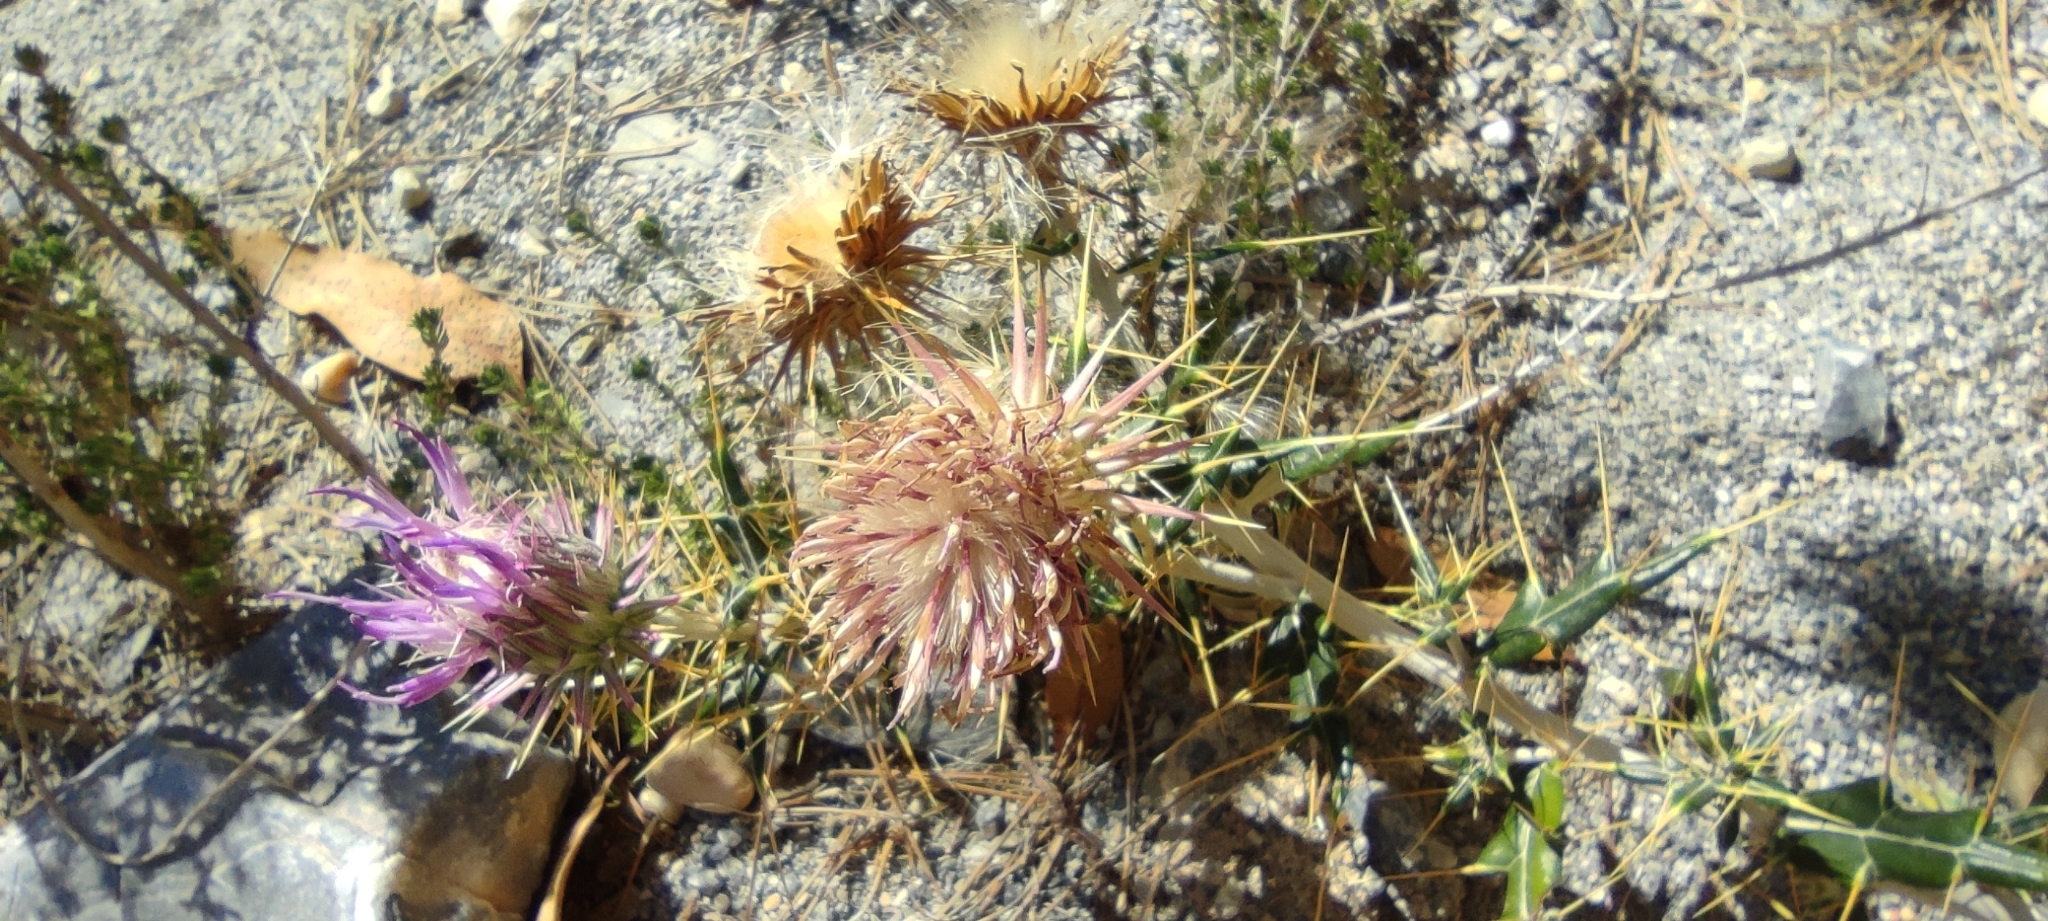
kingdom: Plantae
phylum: Tracheophyta
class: Magnoliopsida
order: Asterales
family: Asteraceae
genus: Ptilostemon
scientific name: Ptilostemon hispanicus
